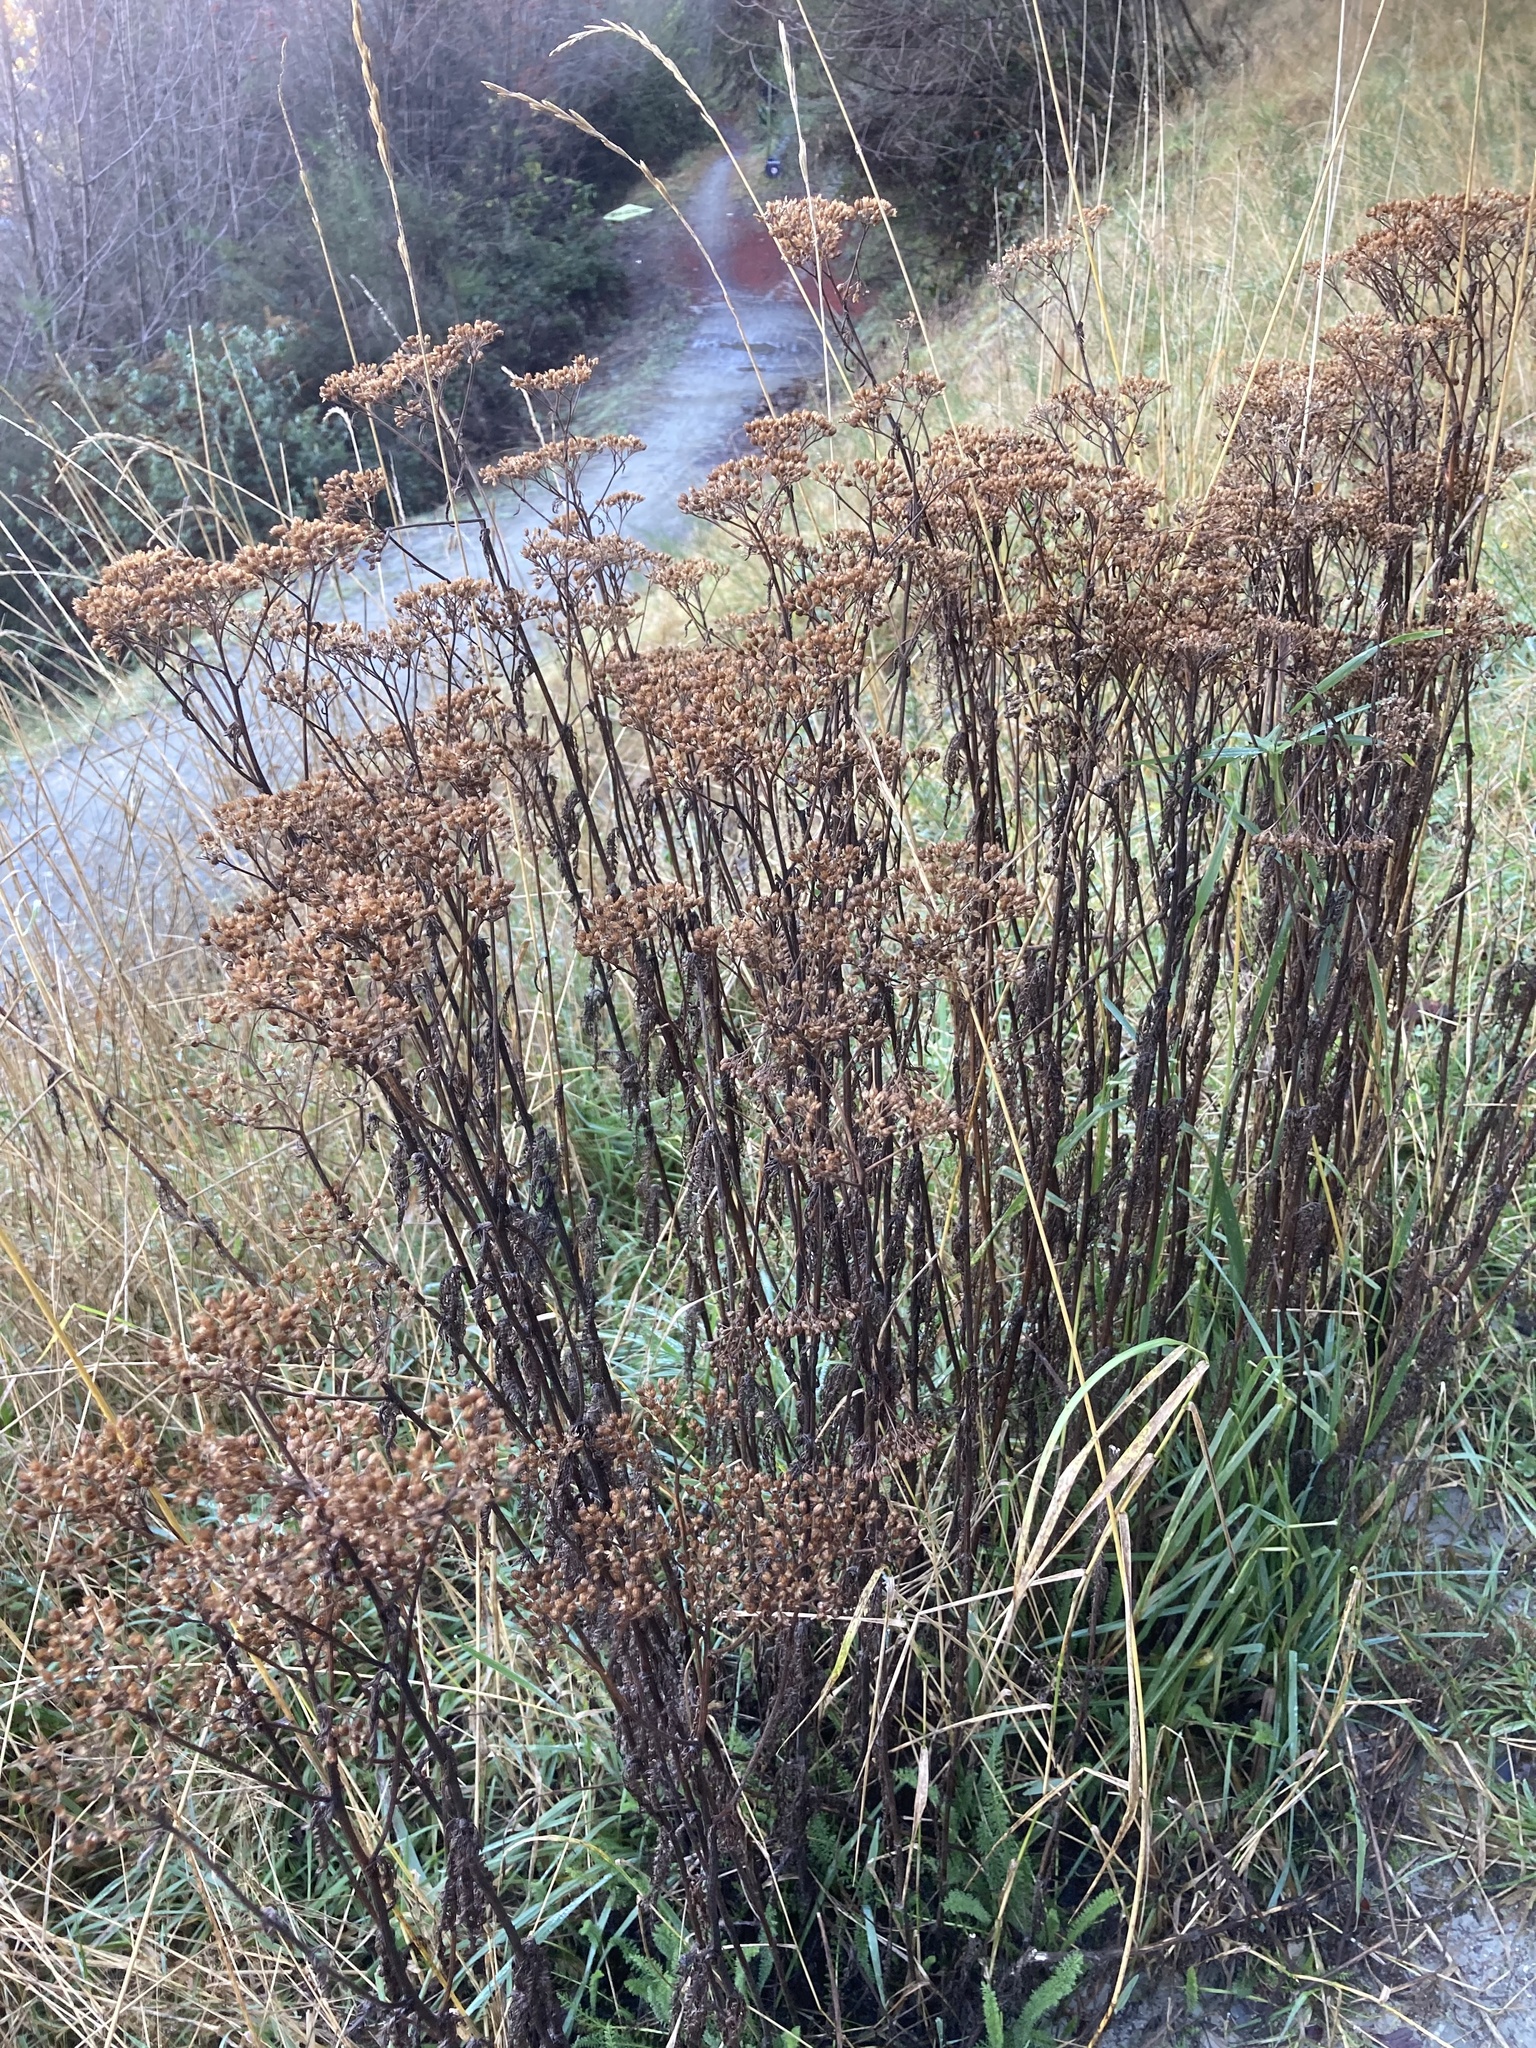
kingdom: Plantae
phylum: Tracheophyta
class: Magnoliopsida
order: Asterales
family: Asteraceae
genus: Achillea
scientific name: Achillea millefolium
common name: Yarrow
